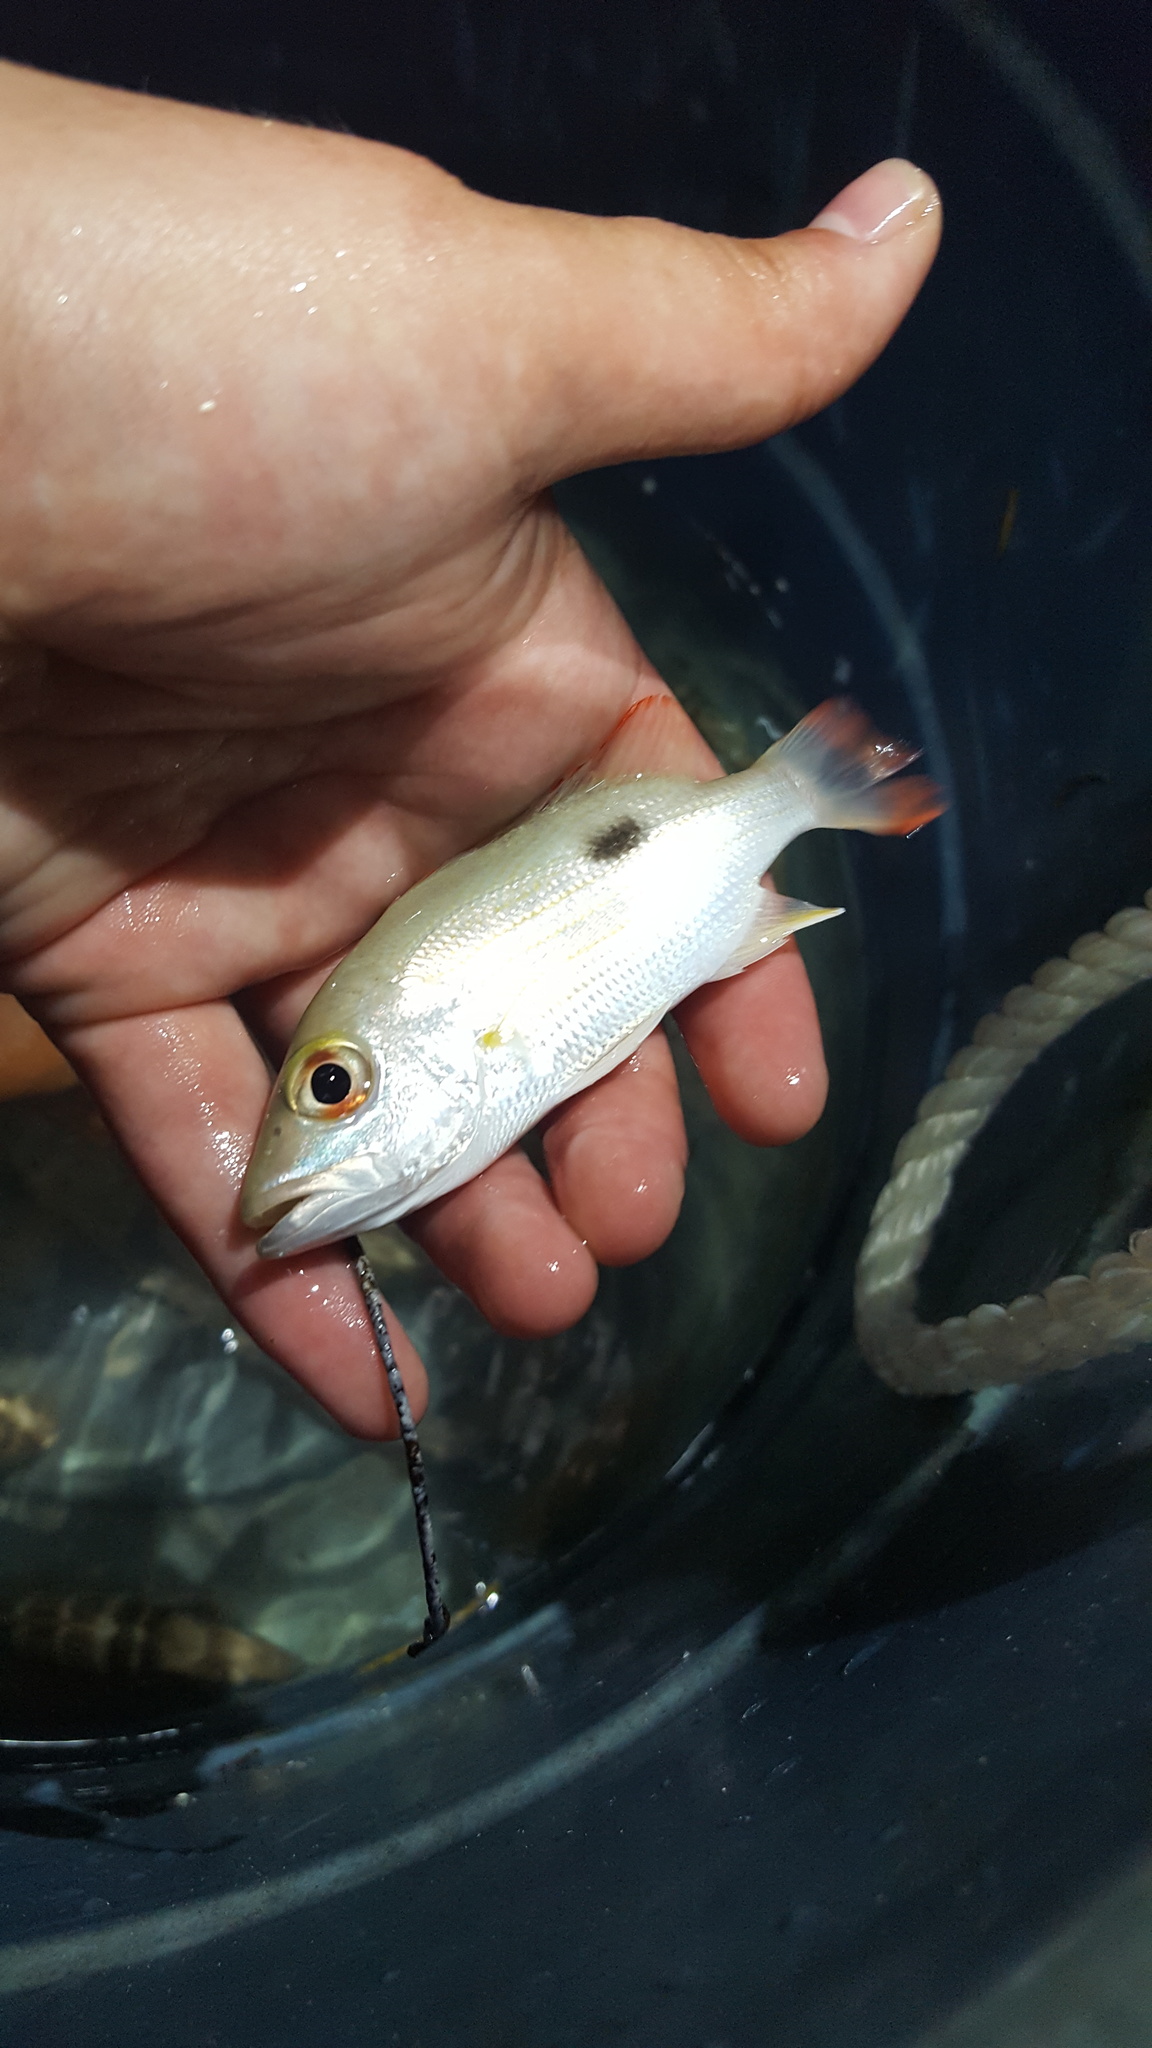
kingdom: Animalia
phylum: Chordata
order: Perciformes
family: Lutjanidae
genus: Lutjanus
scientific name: Lutjanus synagris
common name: Lane snapper
